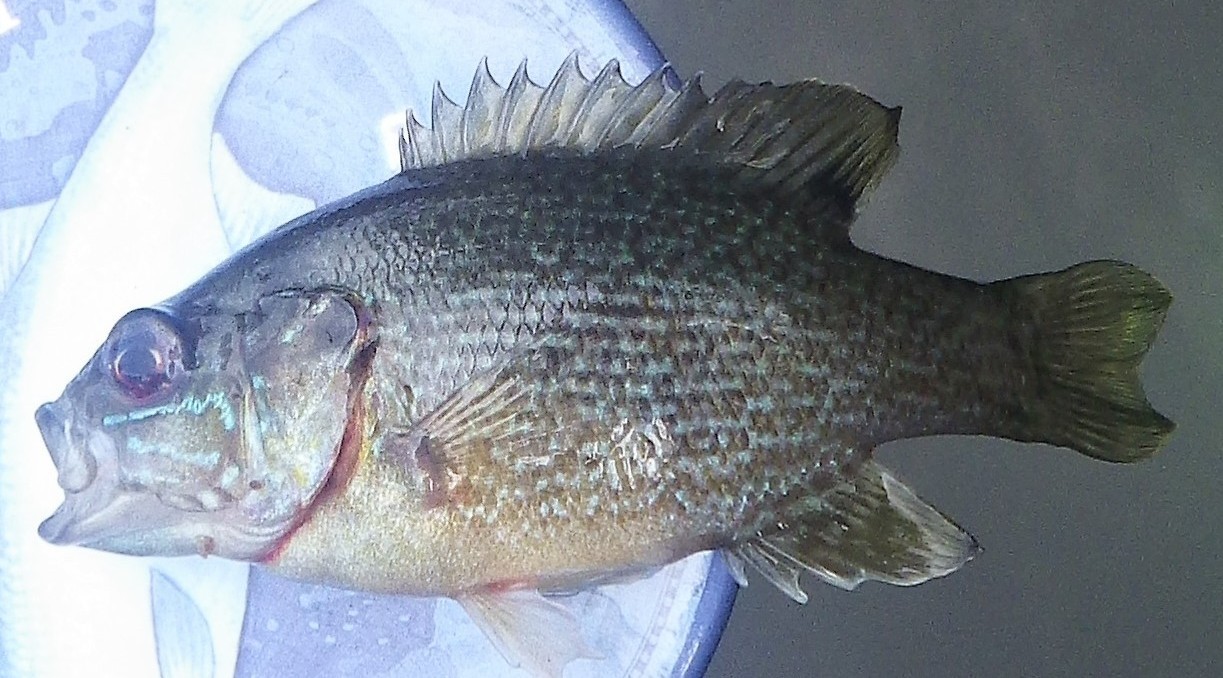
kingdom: Animalia
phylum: Chordata
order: Perciformes
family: Centrarchidae
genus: Lepomis
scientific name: Lepomis cyanellus
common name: Green sunfish
